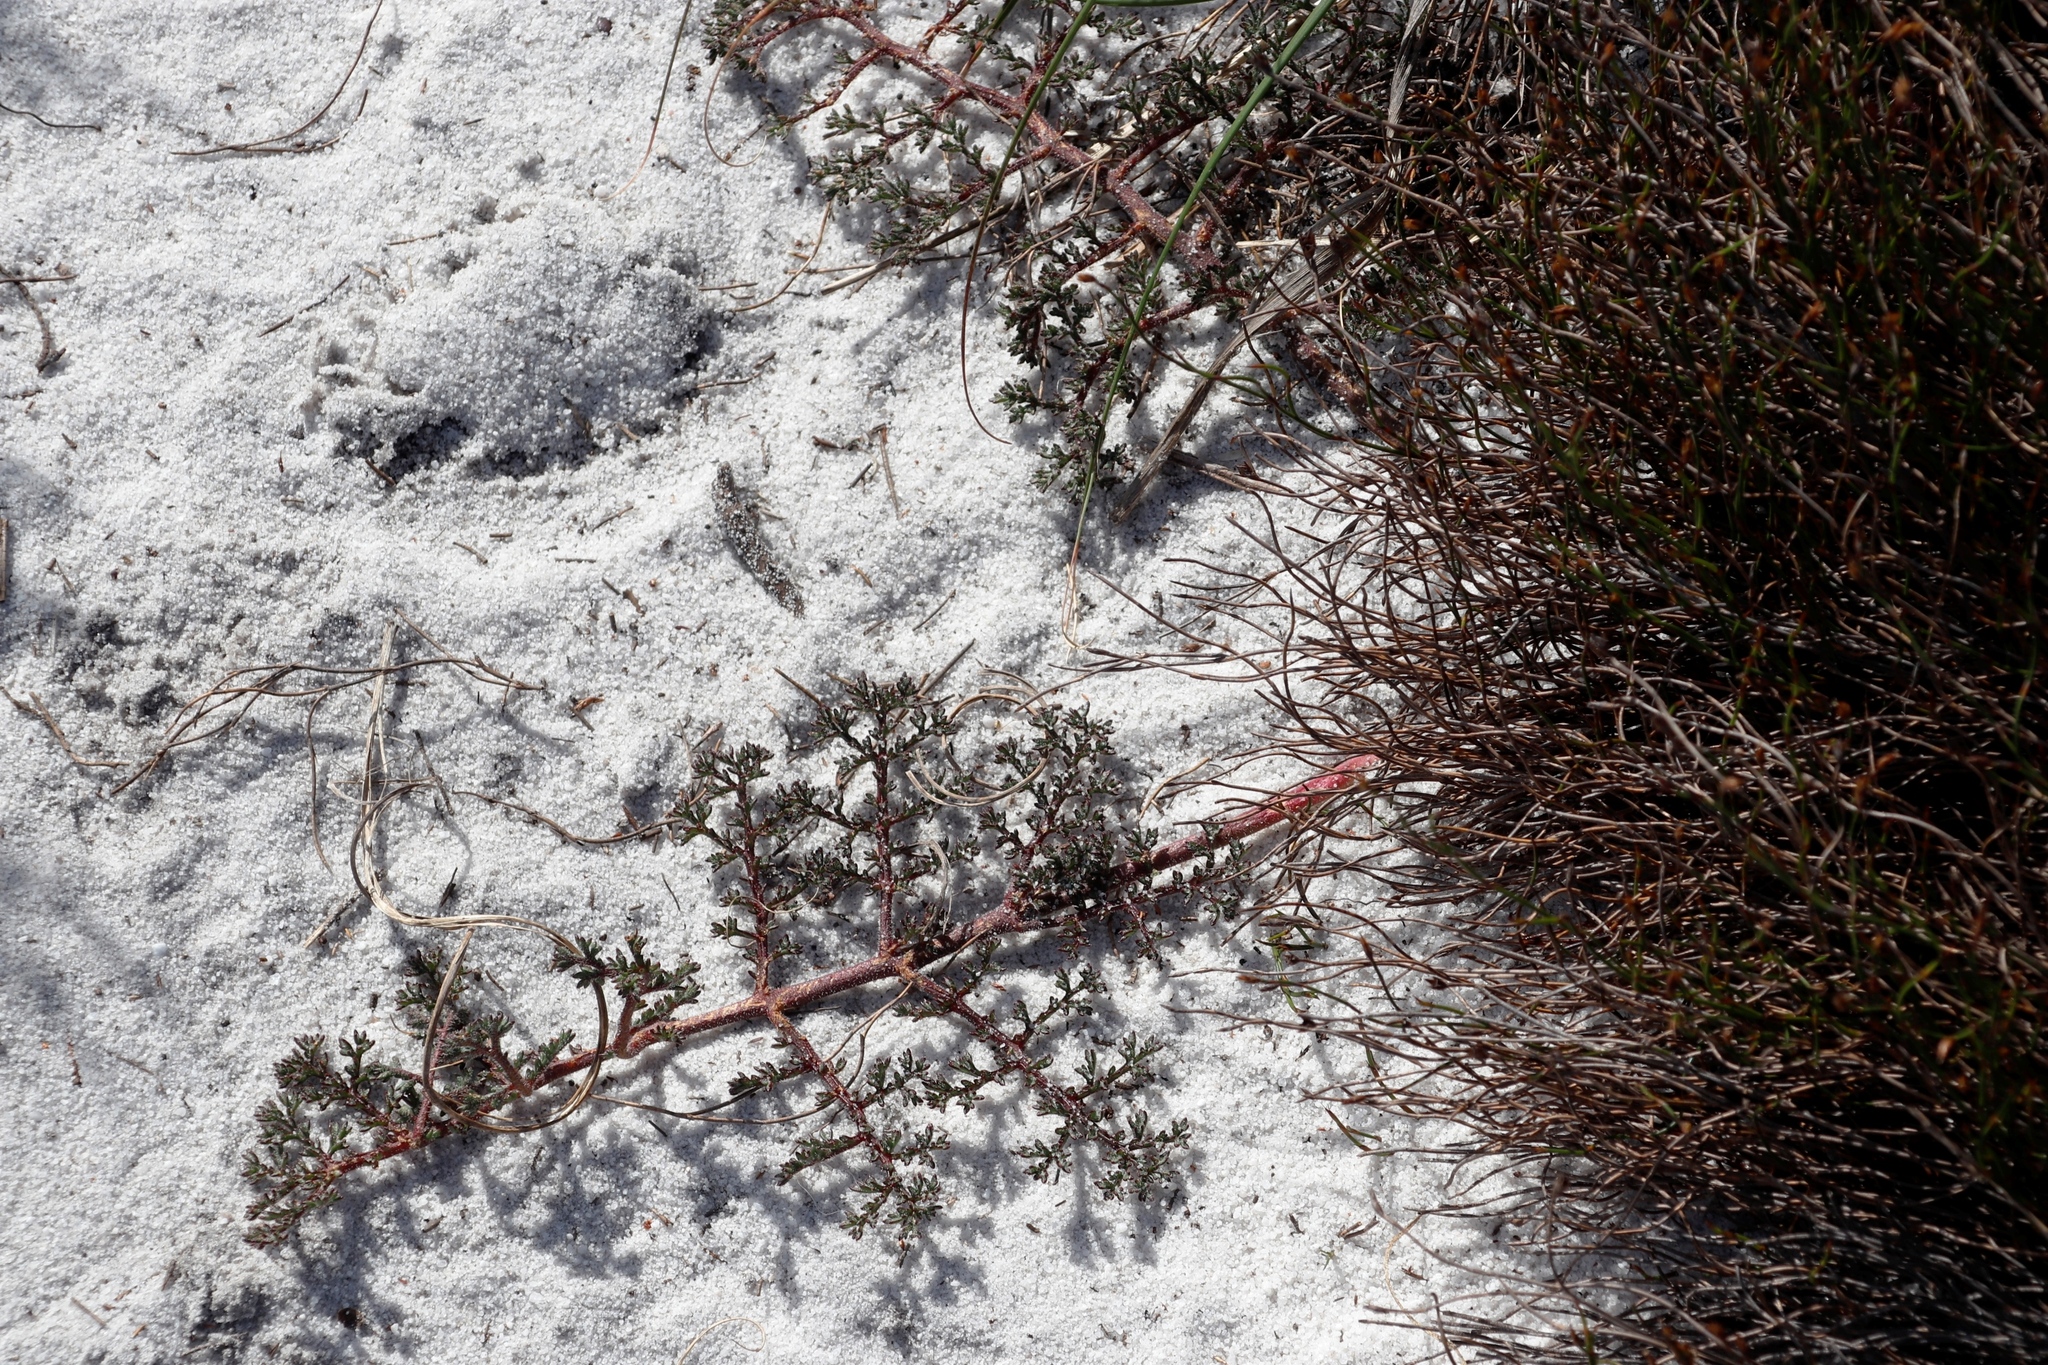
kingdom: Plantae
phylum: Tracheophyta
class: Magnoliopsida
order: Geraniales
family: Geraniaceae
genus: Pelargonium
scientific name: Pelargonium triste
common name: Night-scent pelargonium
